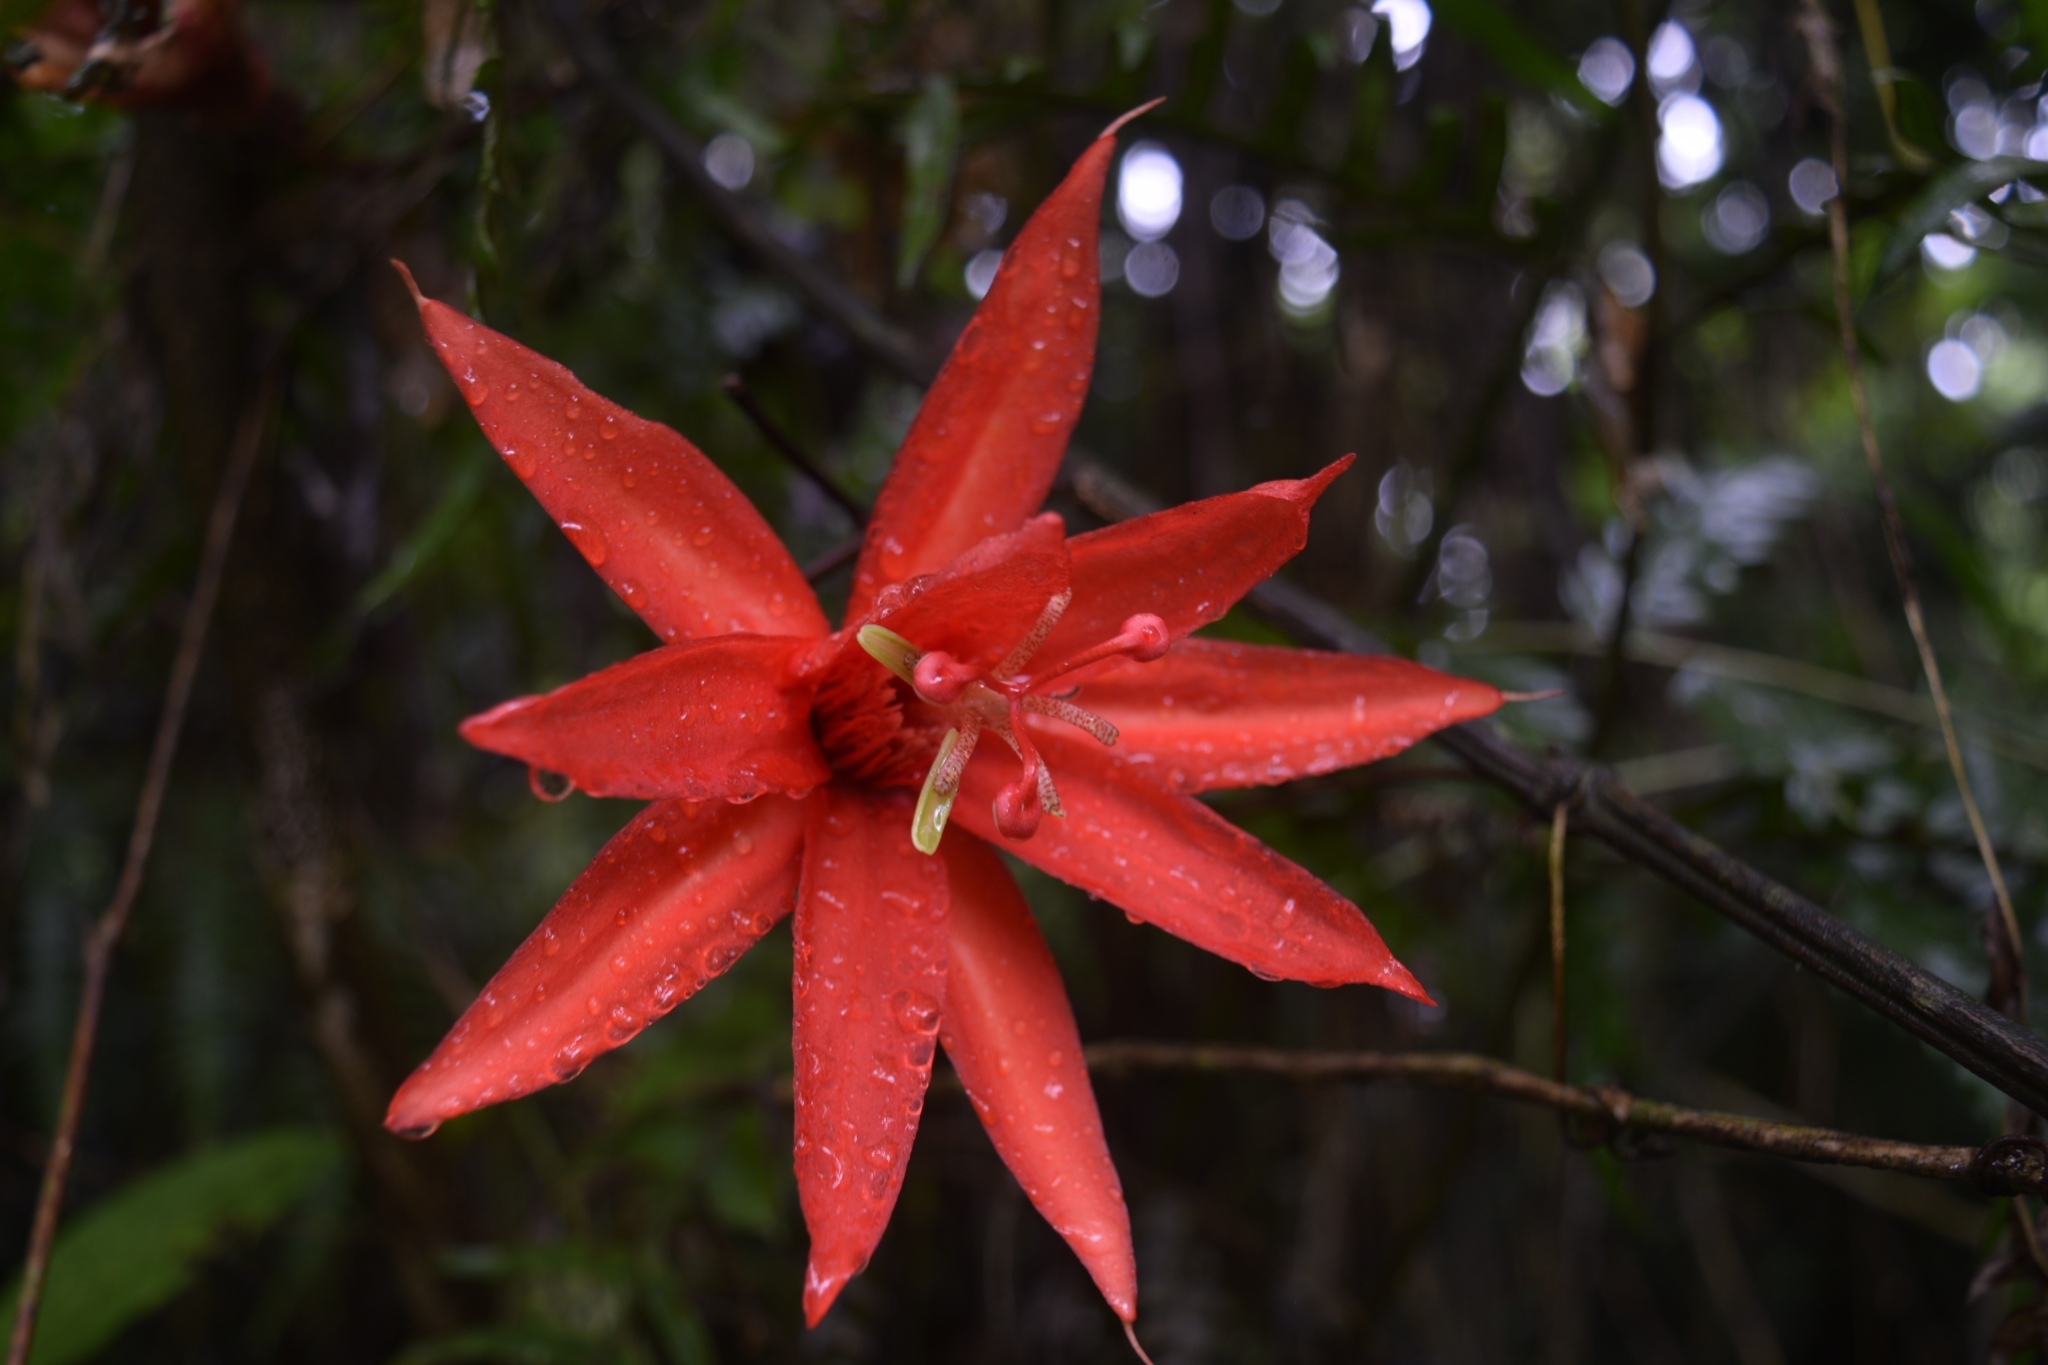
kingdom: Plantae
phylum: Tracheophyta
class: Magnoliopsida
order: Malpighiales
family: Passifloraceae
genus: Passiflora
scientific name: Passiflora vitifolia
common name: Perfumed passionflower
